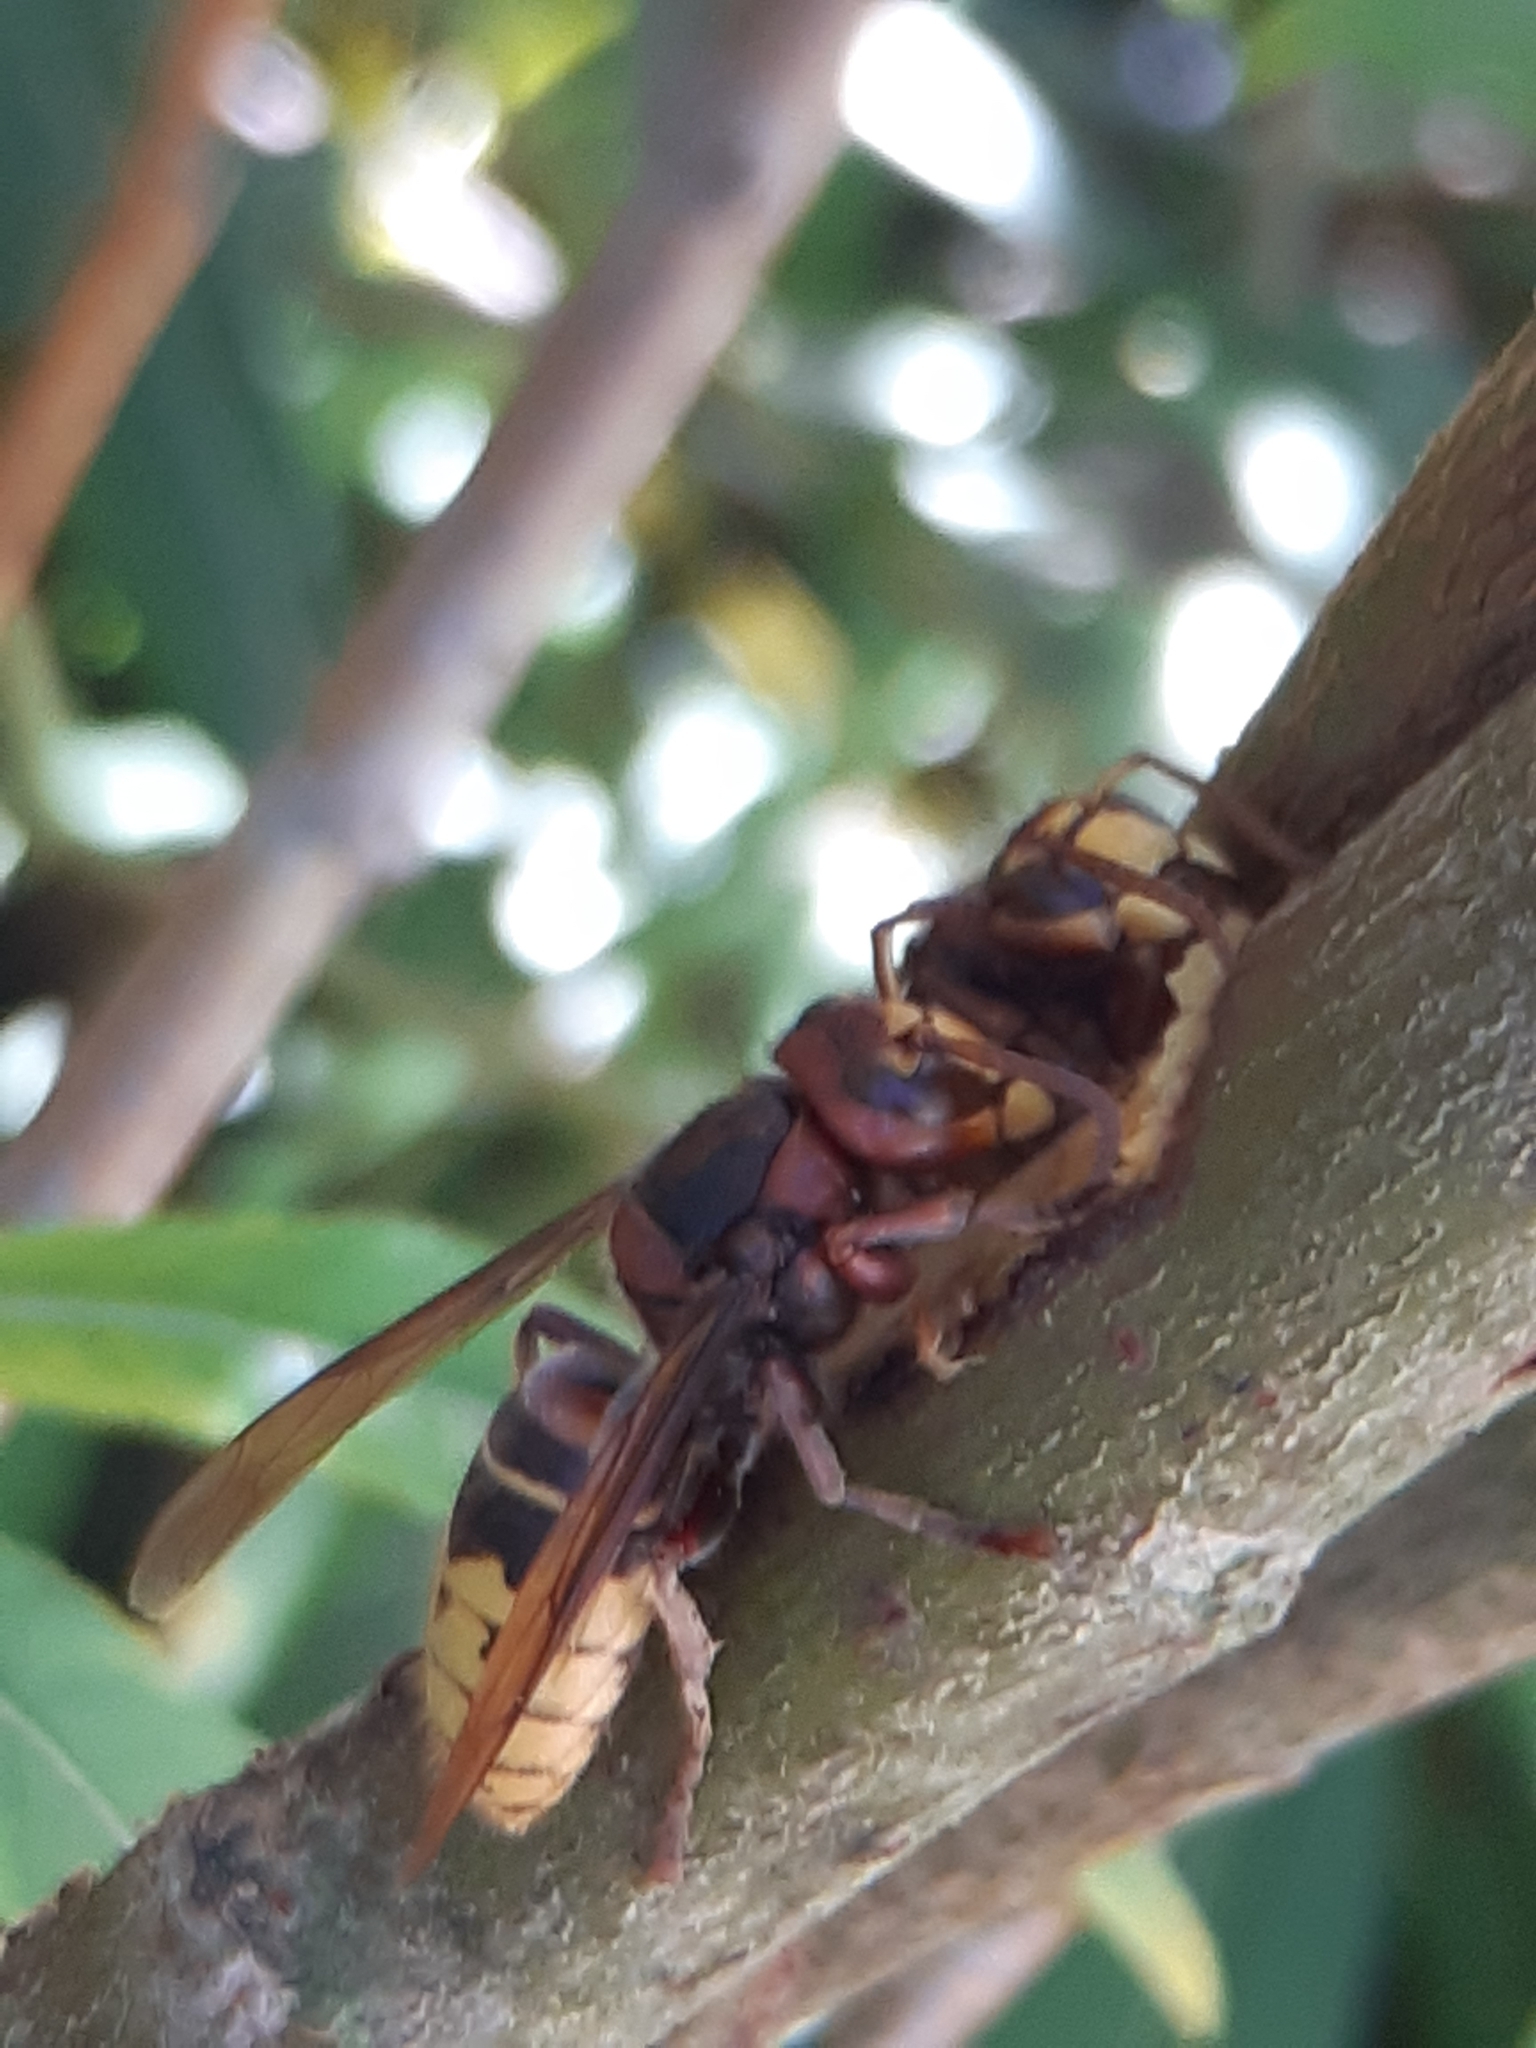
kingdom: Animalia
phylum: Arthropoda
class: Insecta
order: Hymenoptera
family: Vespidae
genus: Vespa
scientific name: Vespa crabro
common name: Hornet
